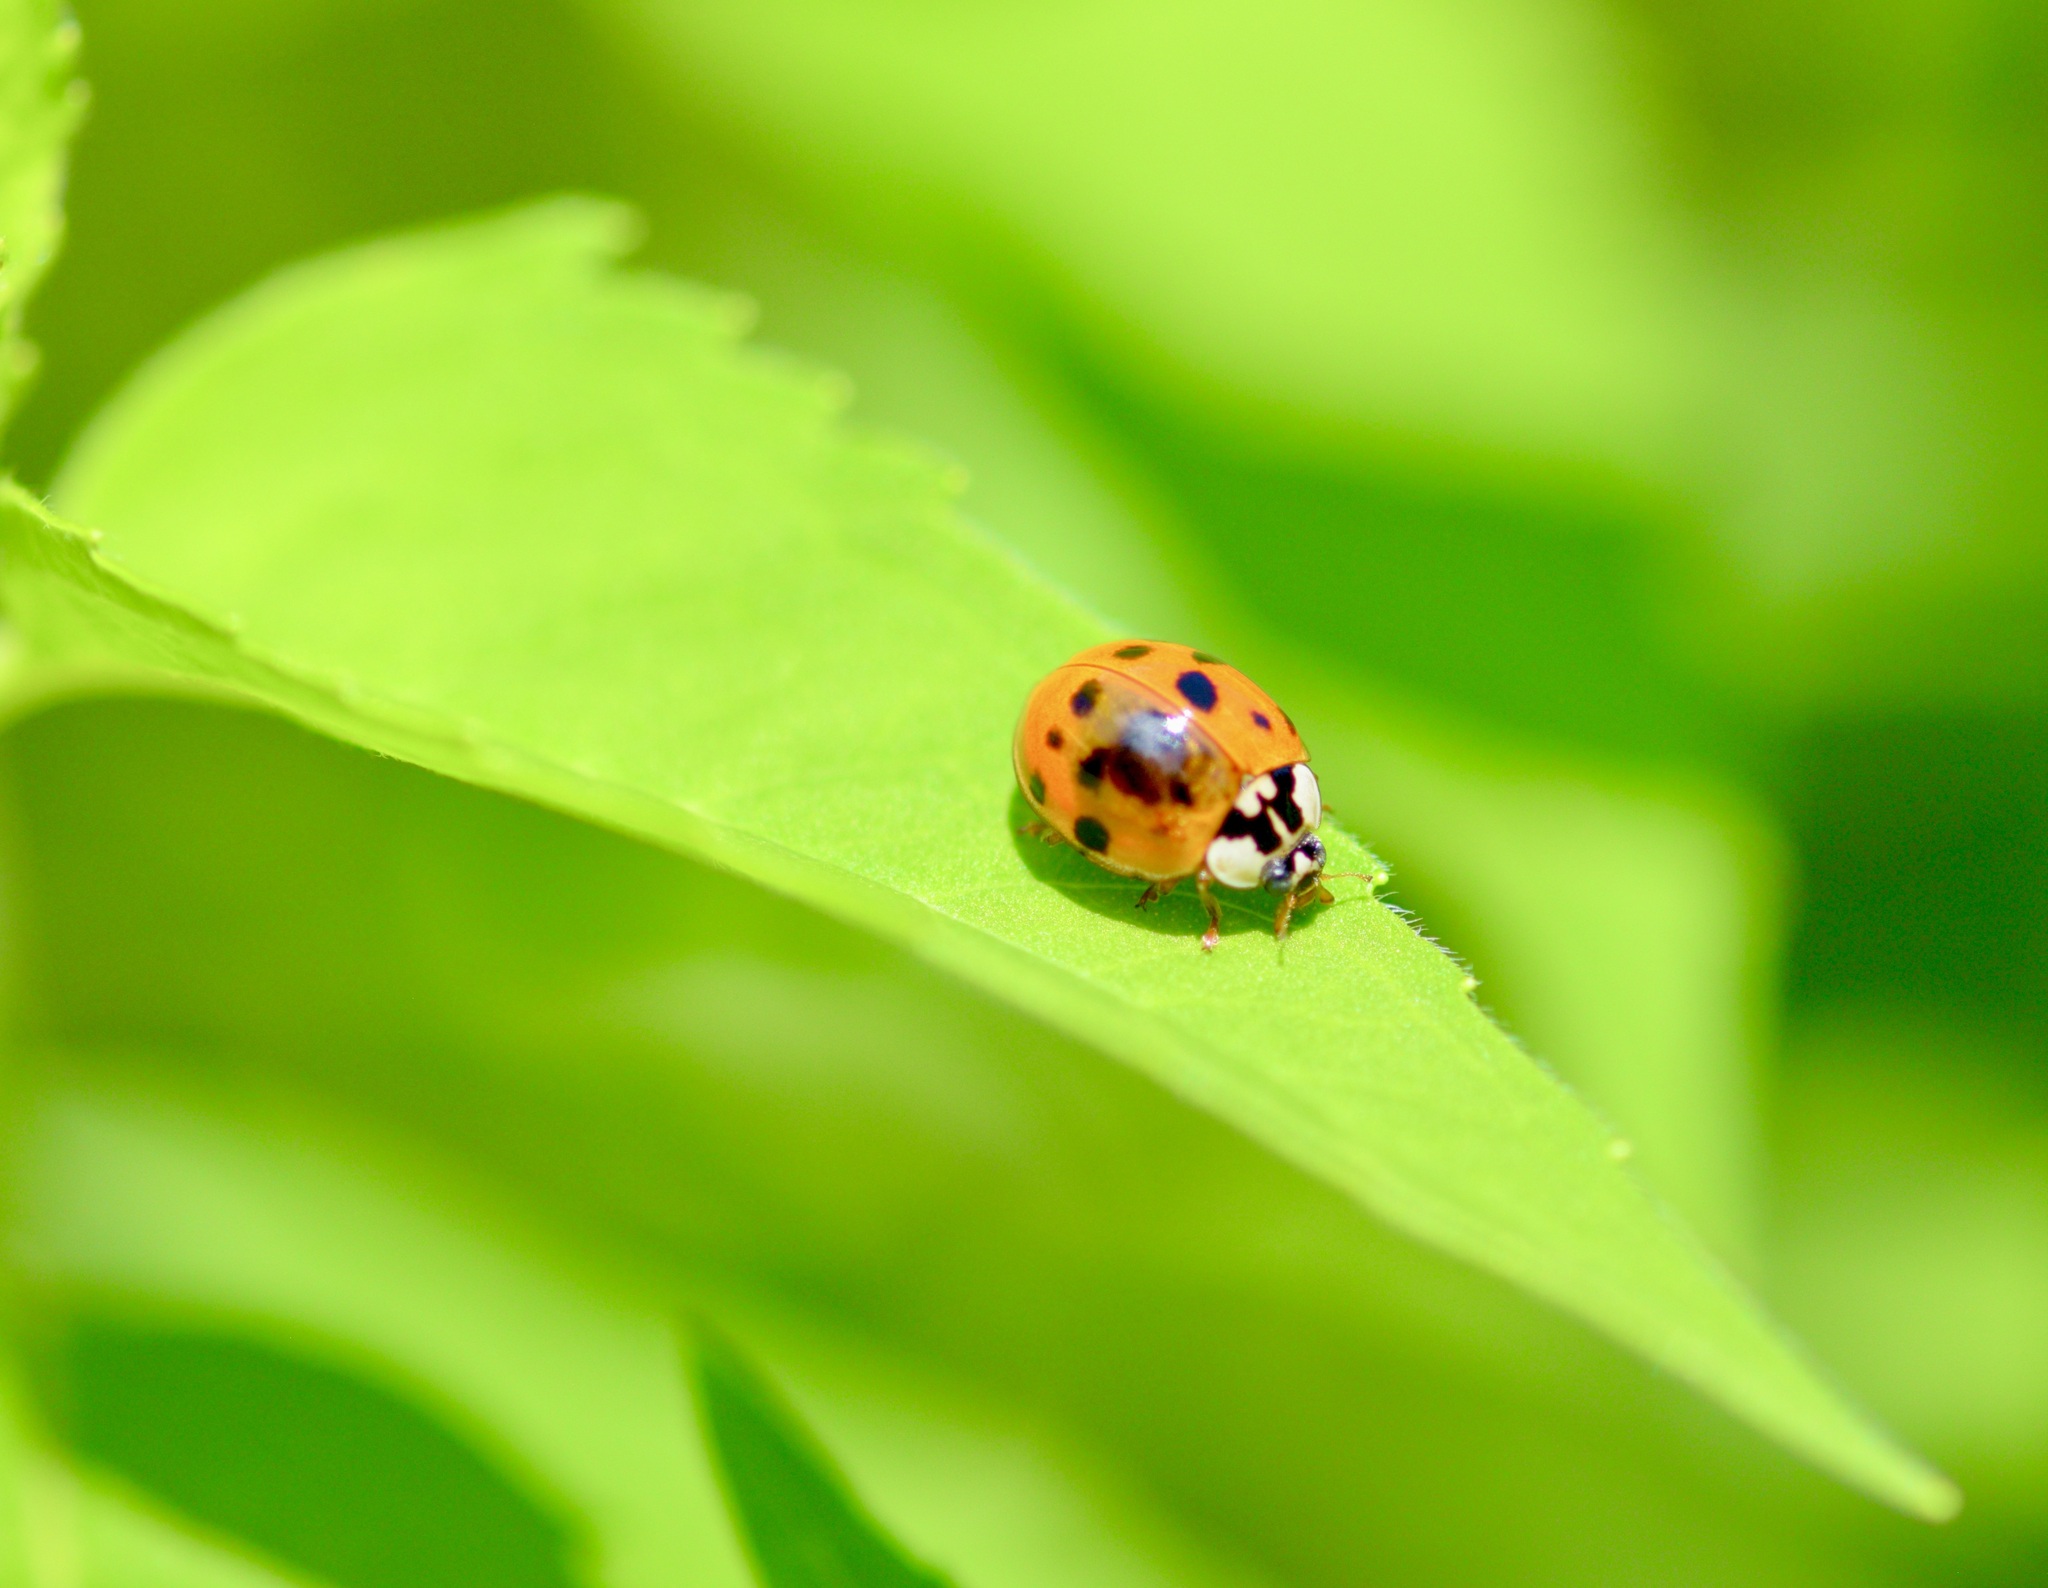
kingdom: Animalia
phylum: Arthropoda
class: Insecta
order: Coleoptera
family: Coccinellidae
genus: Harmonia
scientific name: Harmonia axyridis
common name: Harlequin ladybird
